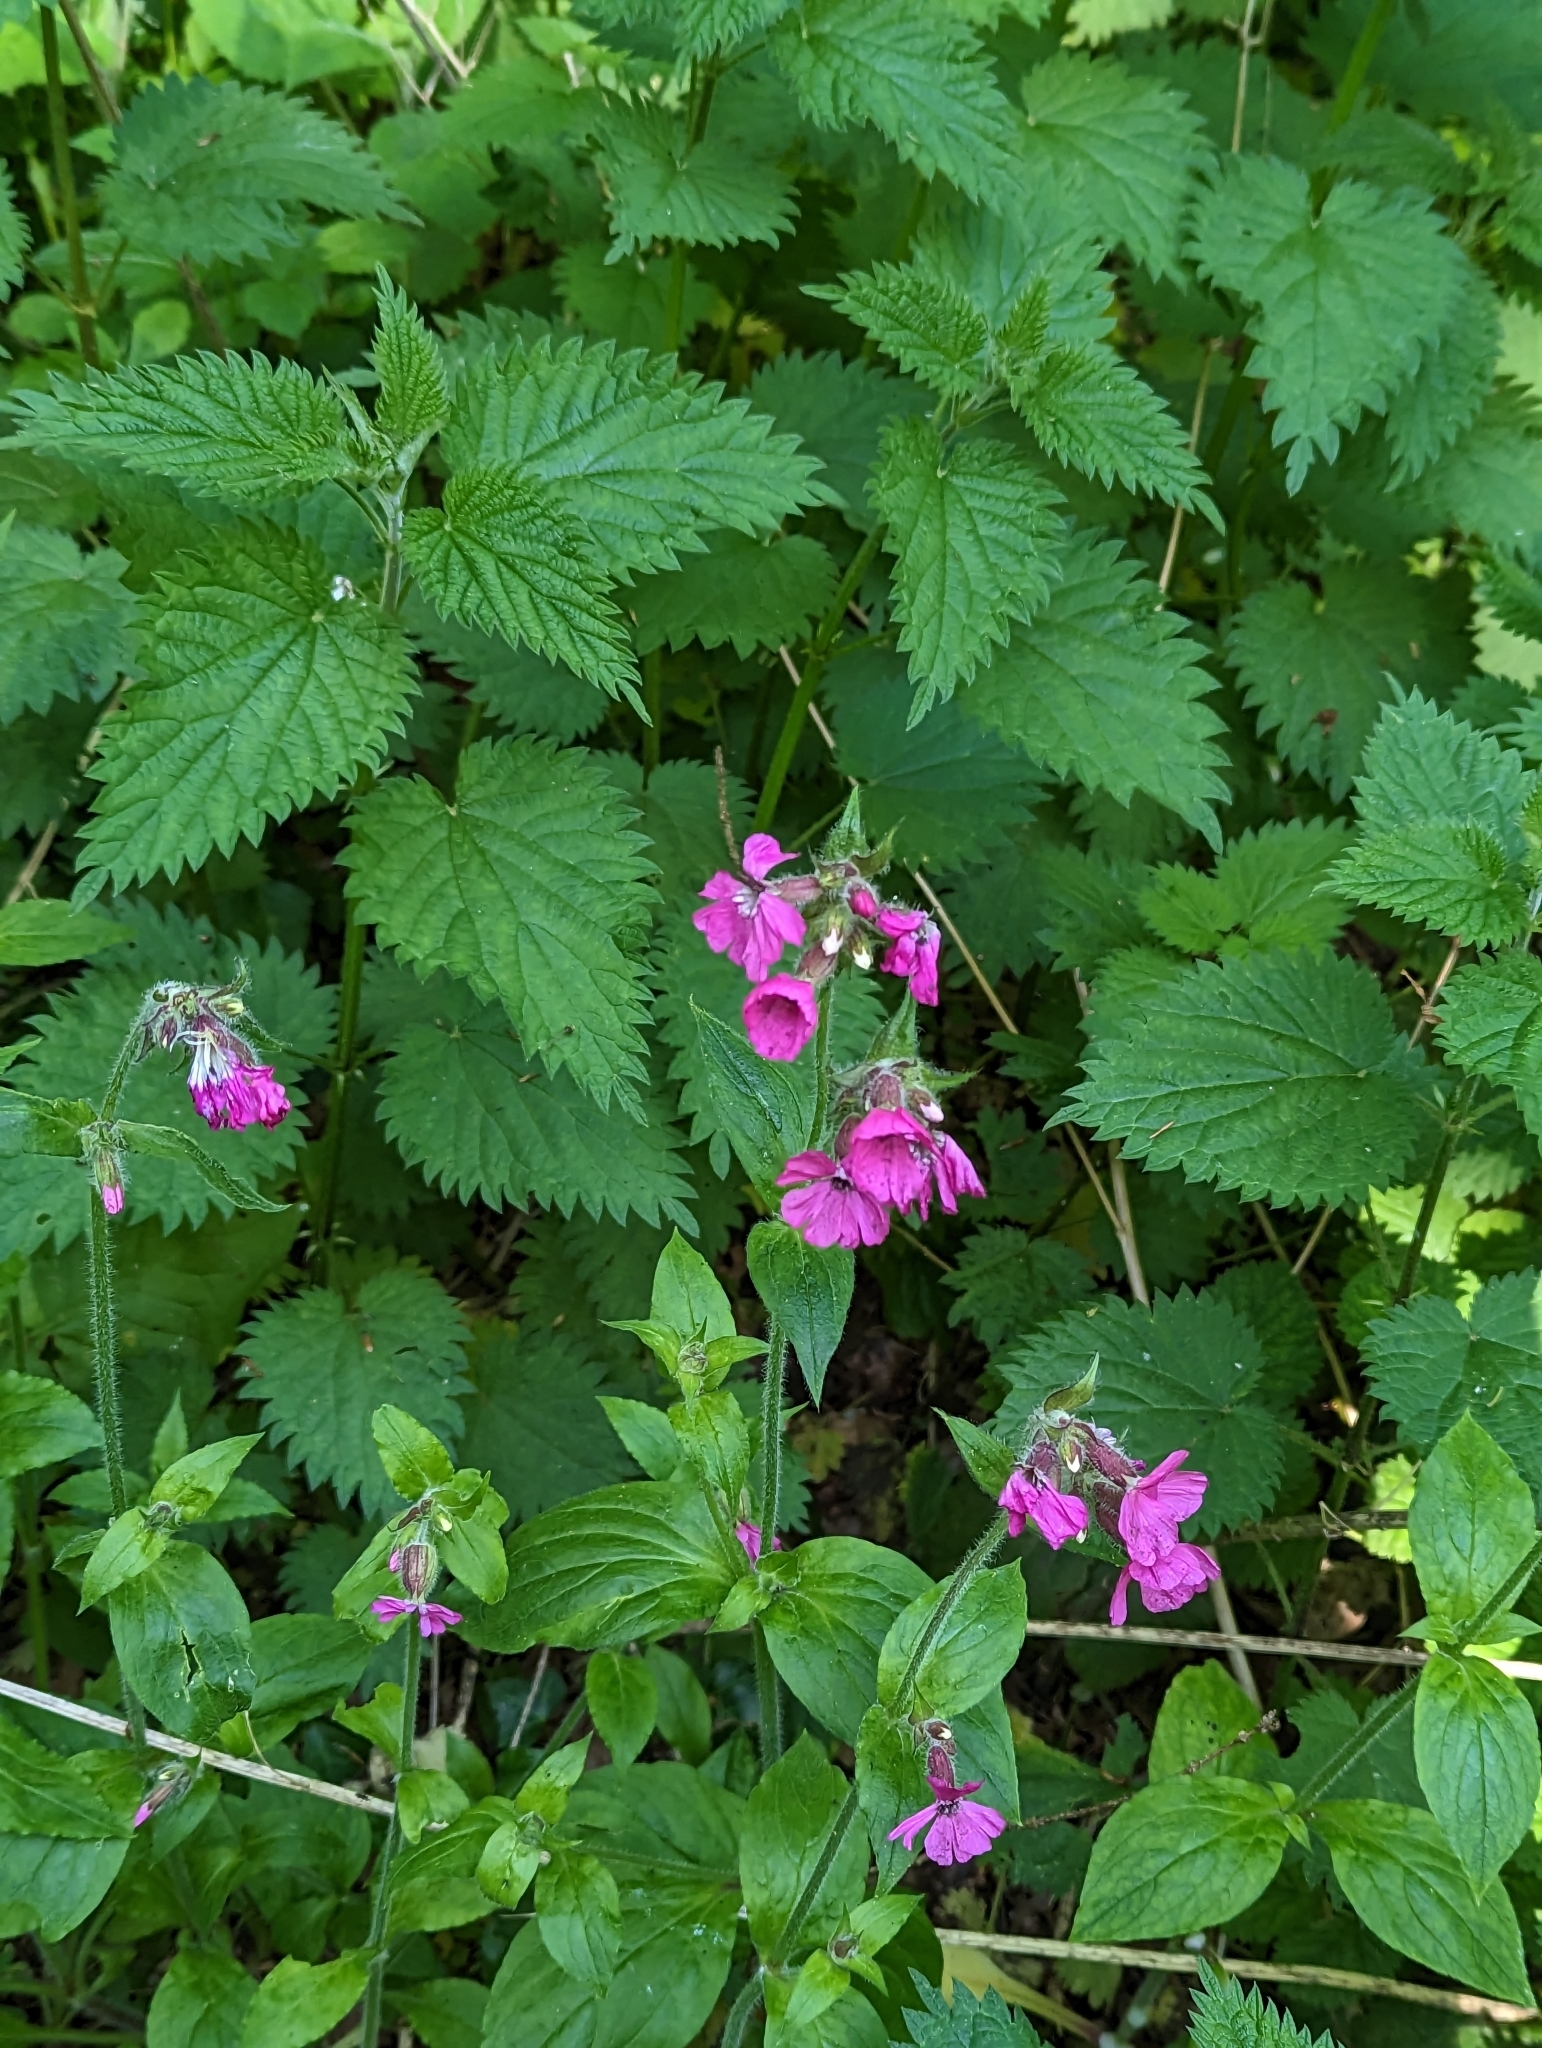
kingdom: Plantae
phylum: Tracheophyta
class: Magnoliopsida
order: Caryophyllales
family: Caryophyllaceae
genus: Silene
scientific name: Silene dioica
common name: Red campion
